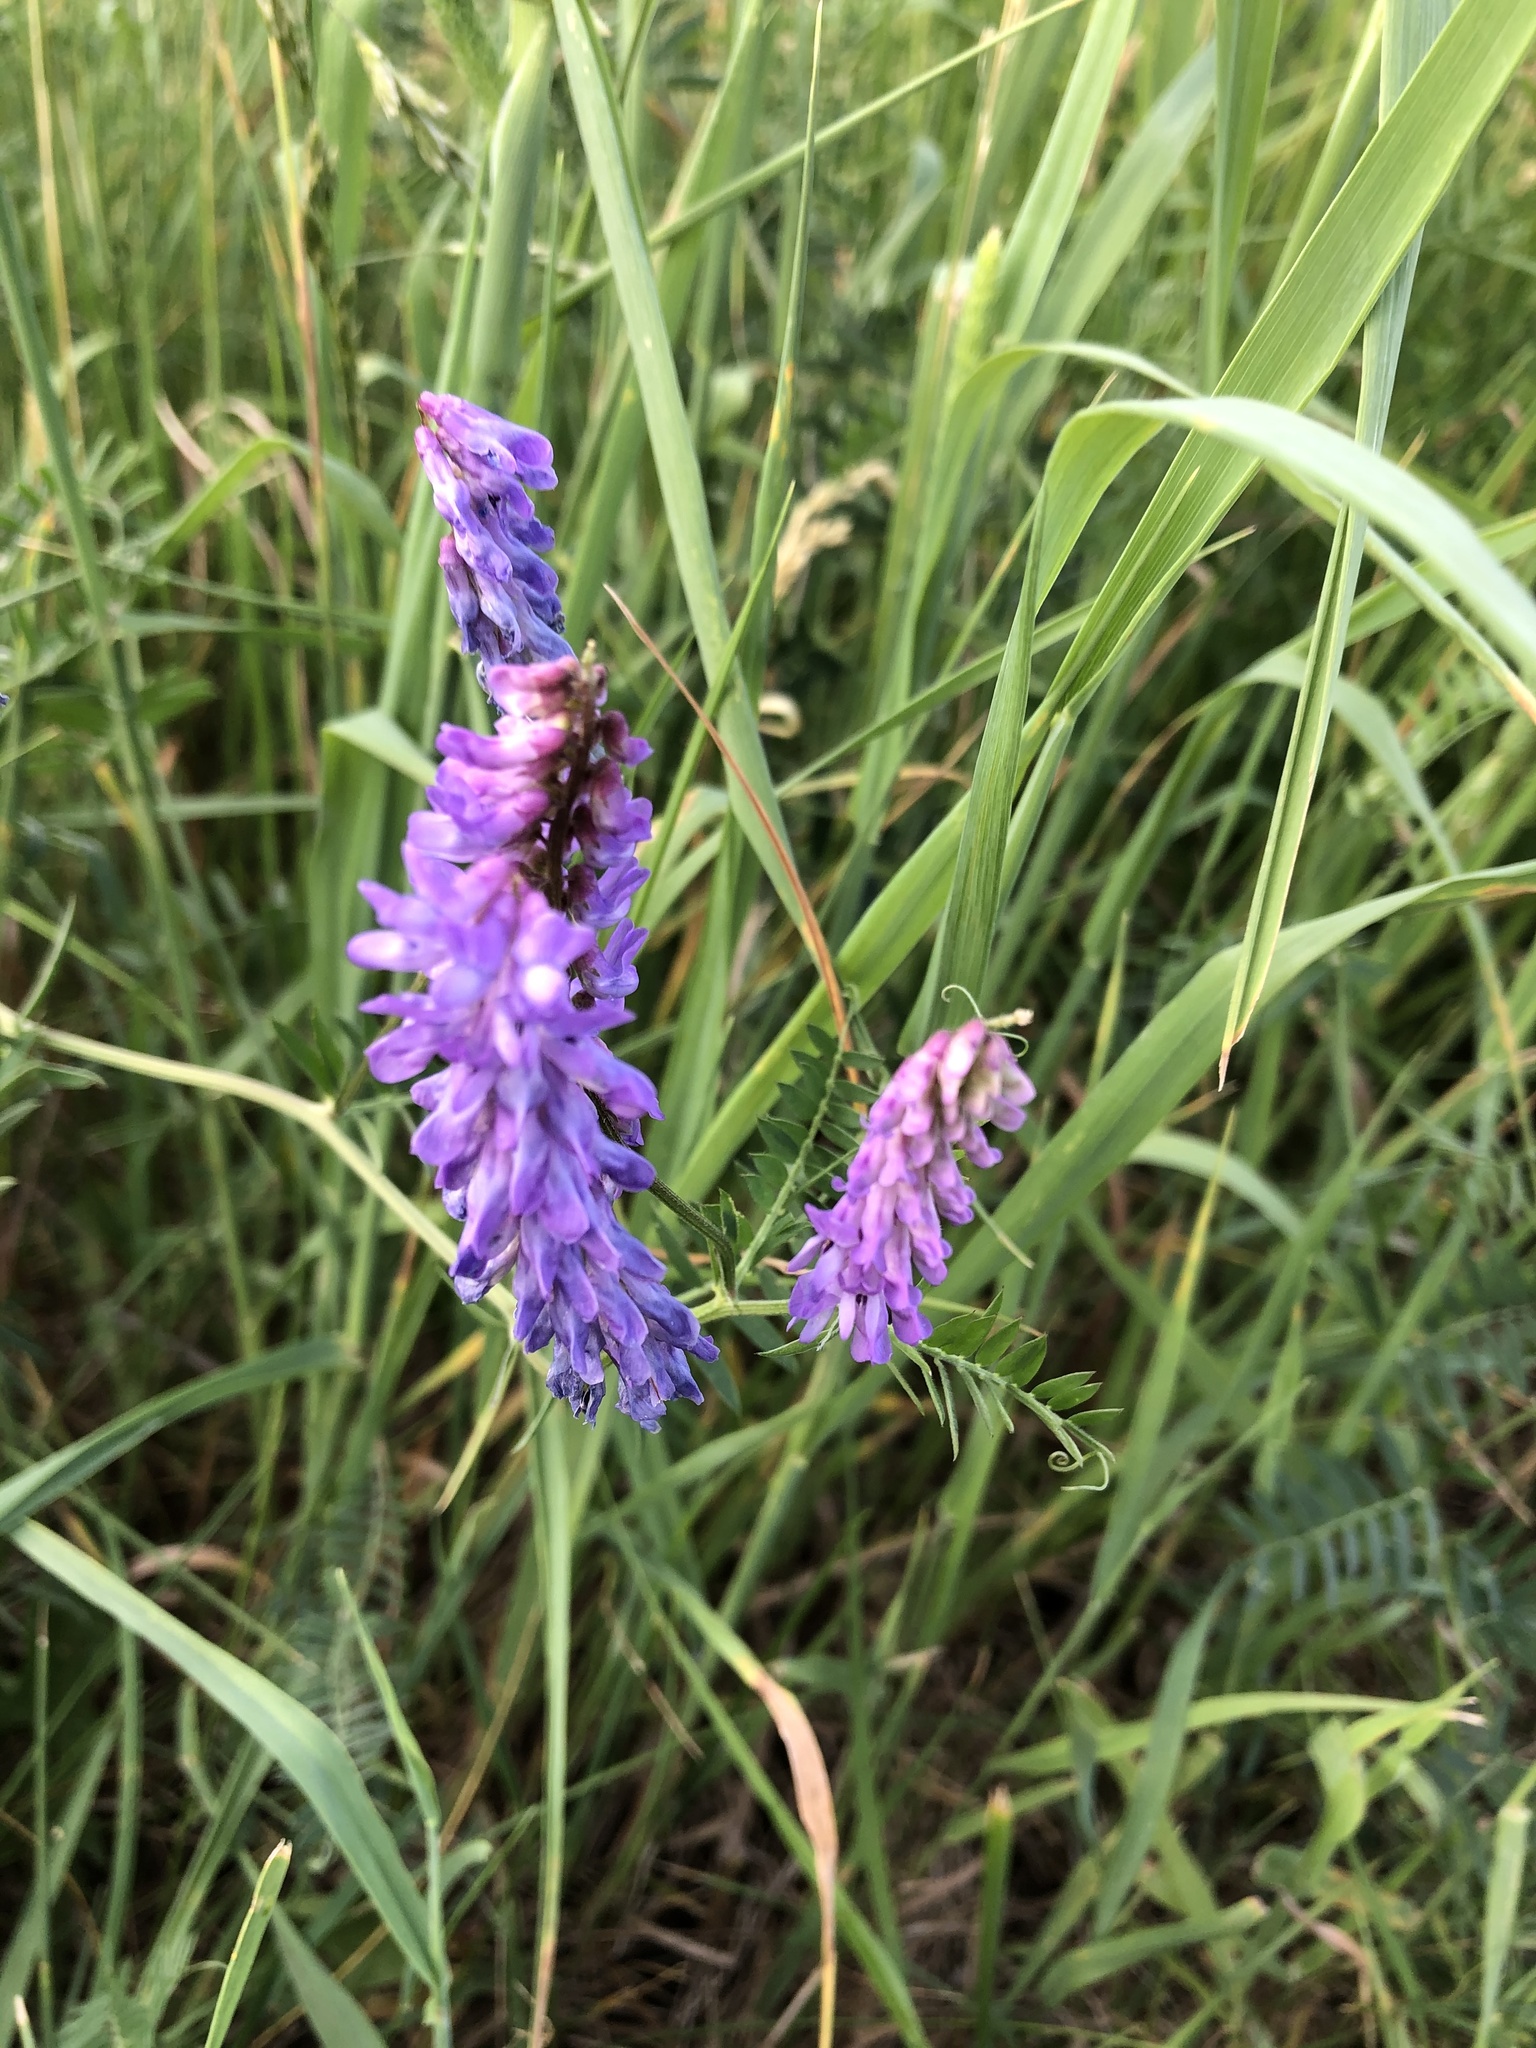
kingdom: Plantae
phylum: Tracheophyta
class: Magnoliopsida
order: Fabales
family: Fabaceae
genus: Vicia
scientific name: Vicia cracca
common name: Bird vetch
